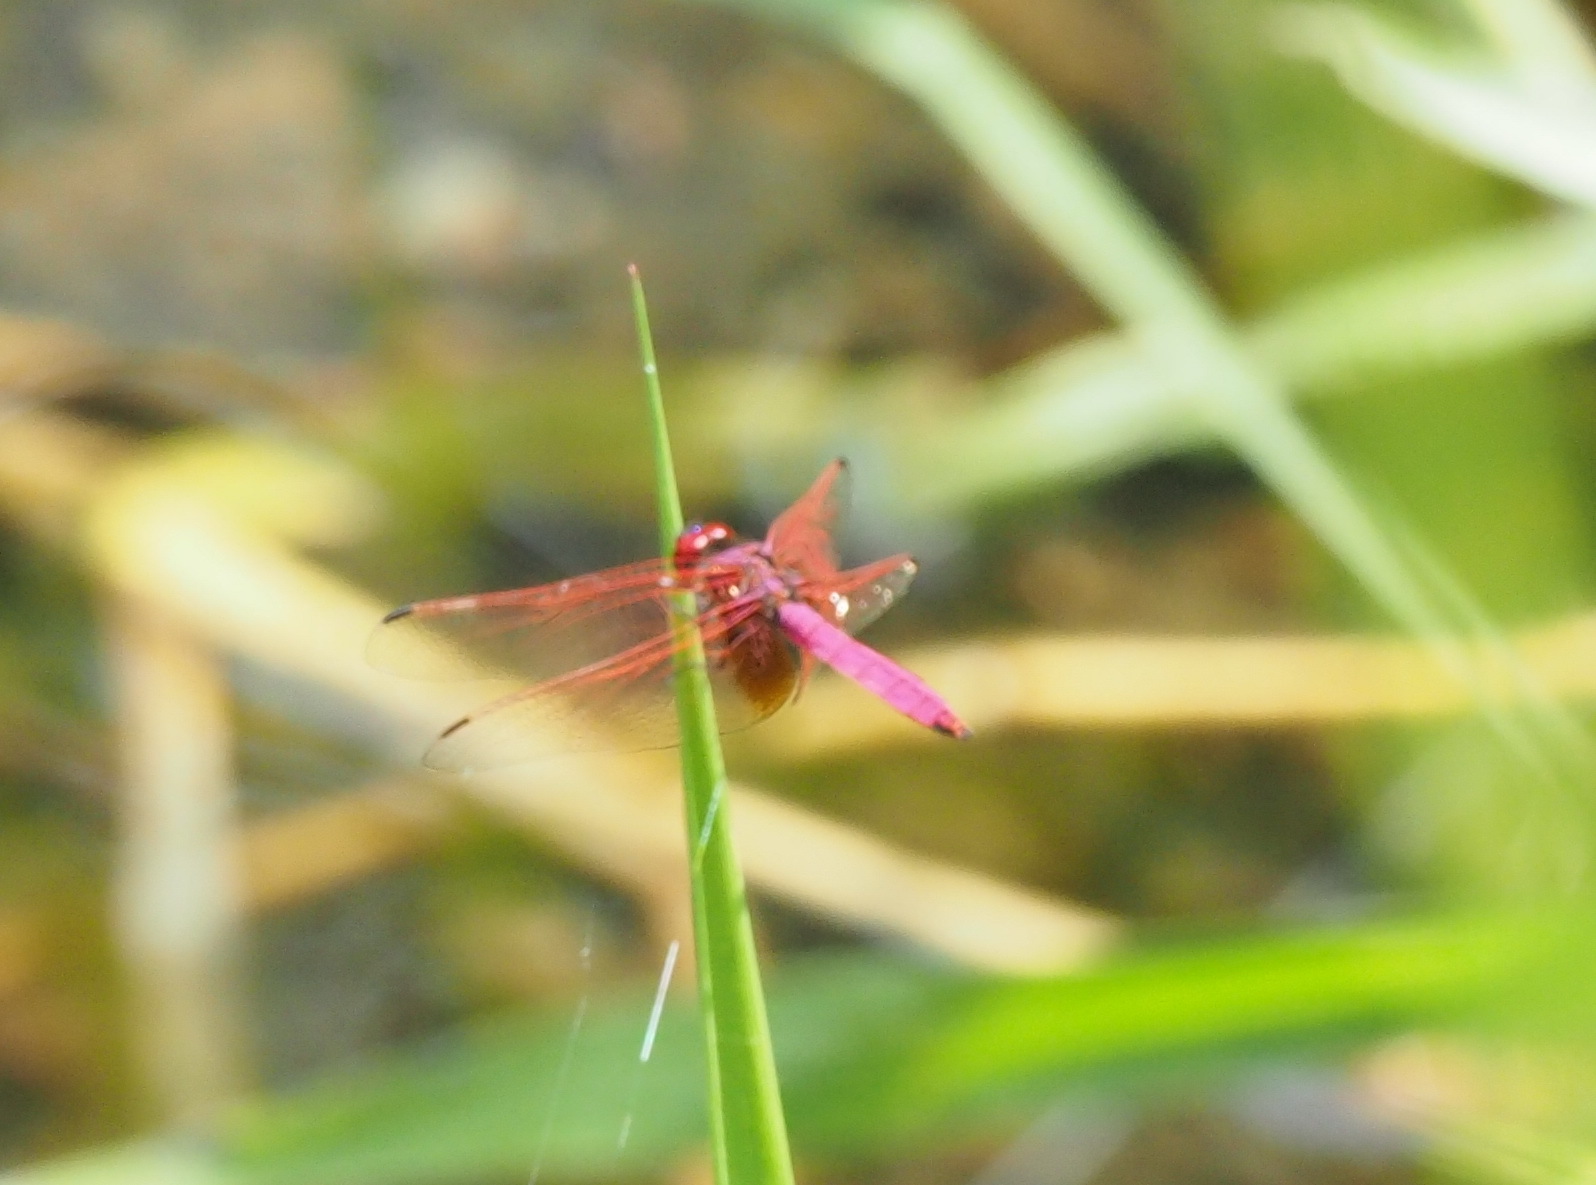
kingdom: Animalia
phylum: Arthropoda
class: Insecta
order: Odonata
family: Libellulidae
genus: Trithemis
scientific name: Trithemis aurora
